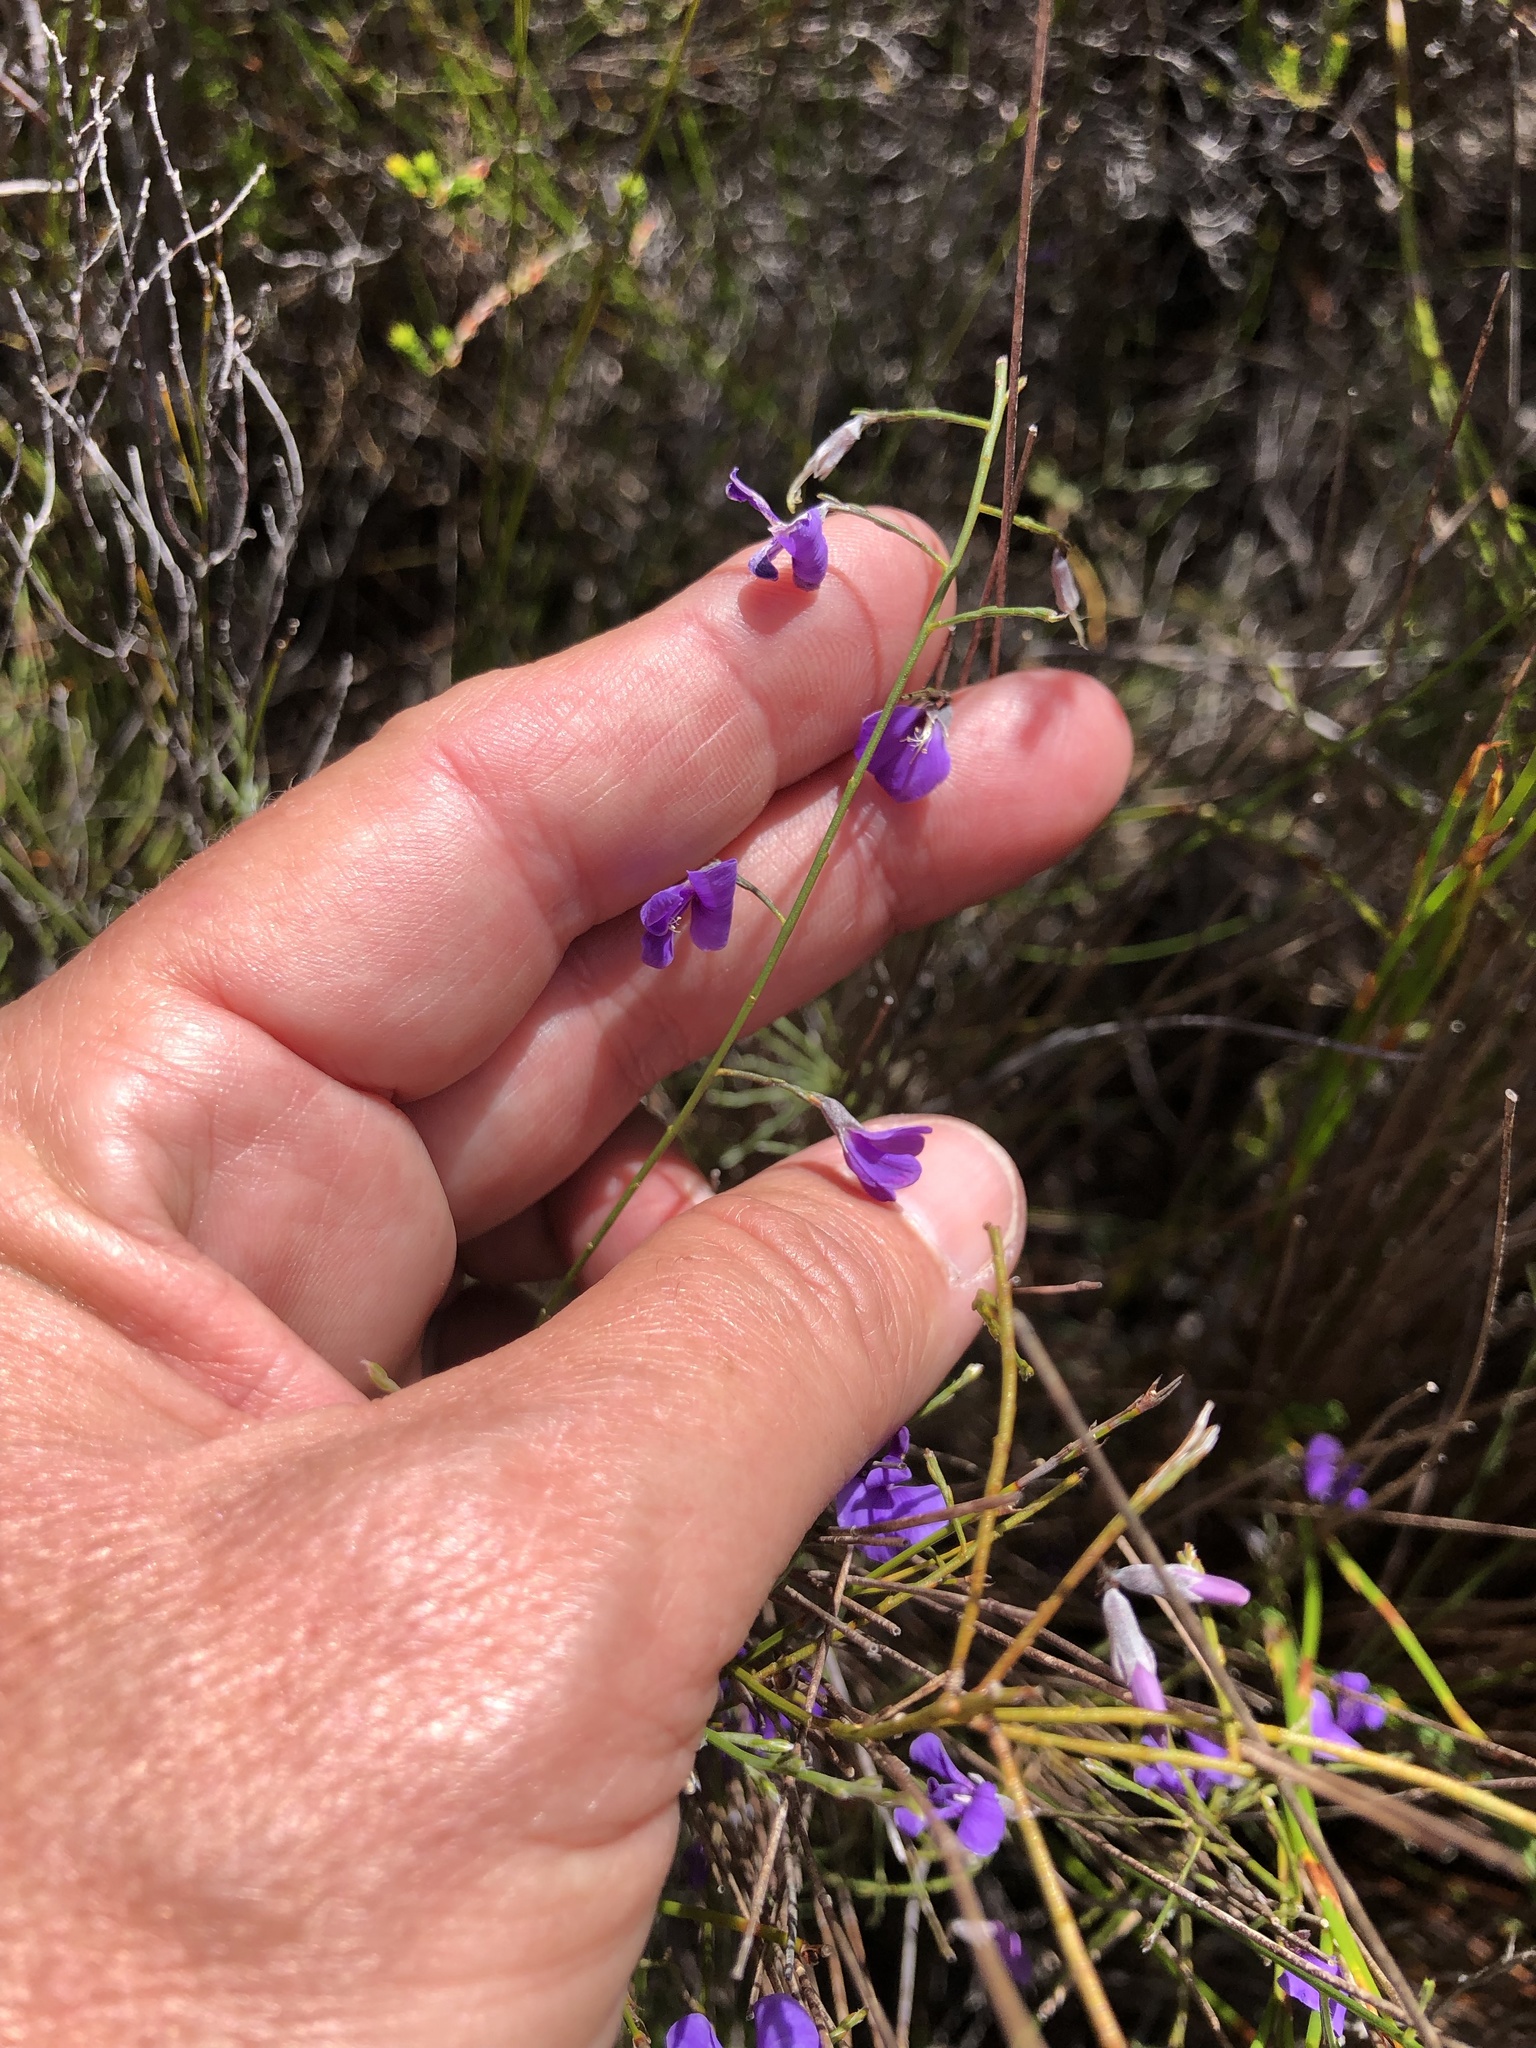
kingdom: Plantae
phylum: Tracheophyta
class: Magnoliopsida
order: Fabales
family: Fabaceae
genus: Amphithalea
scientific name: Amphithalea biovulata
